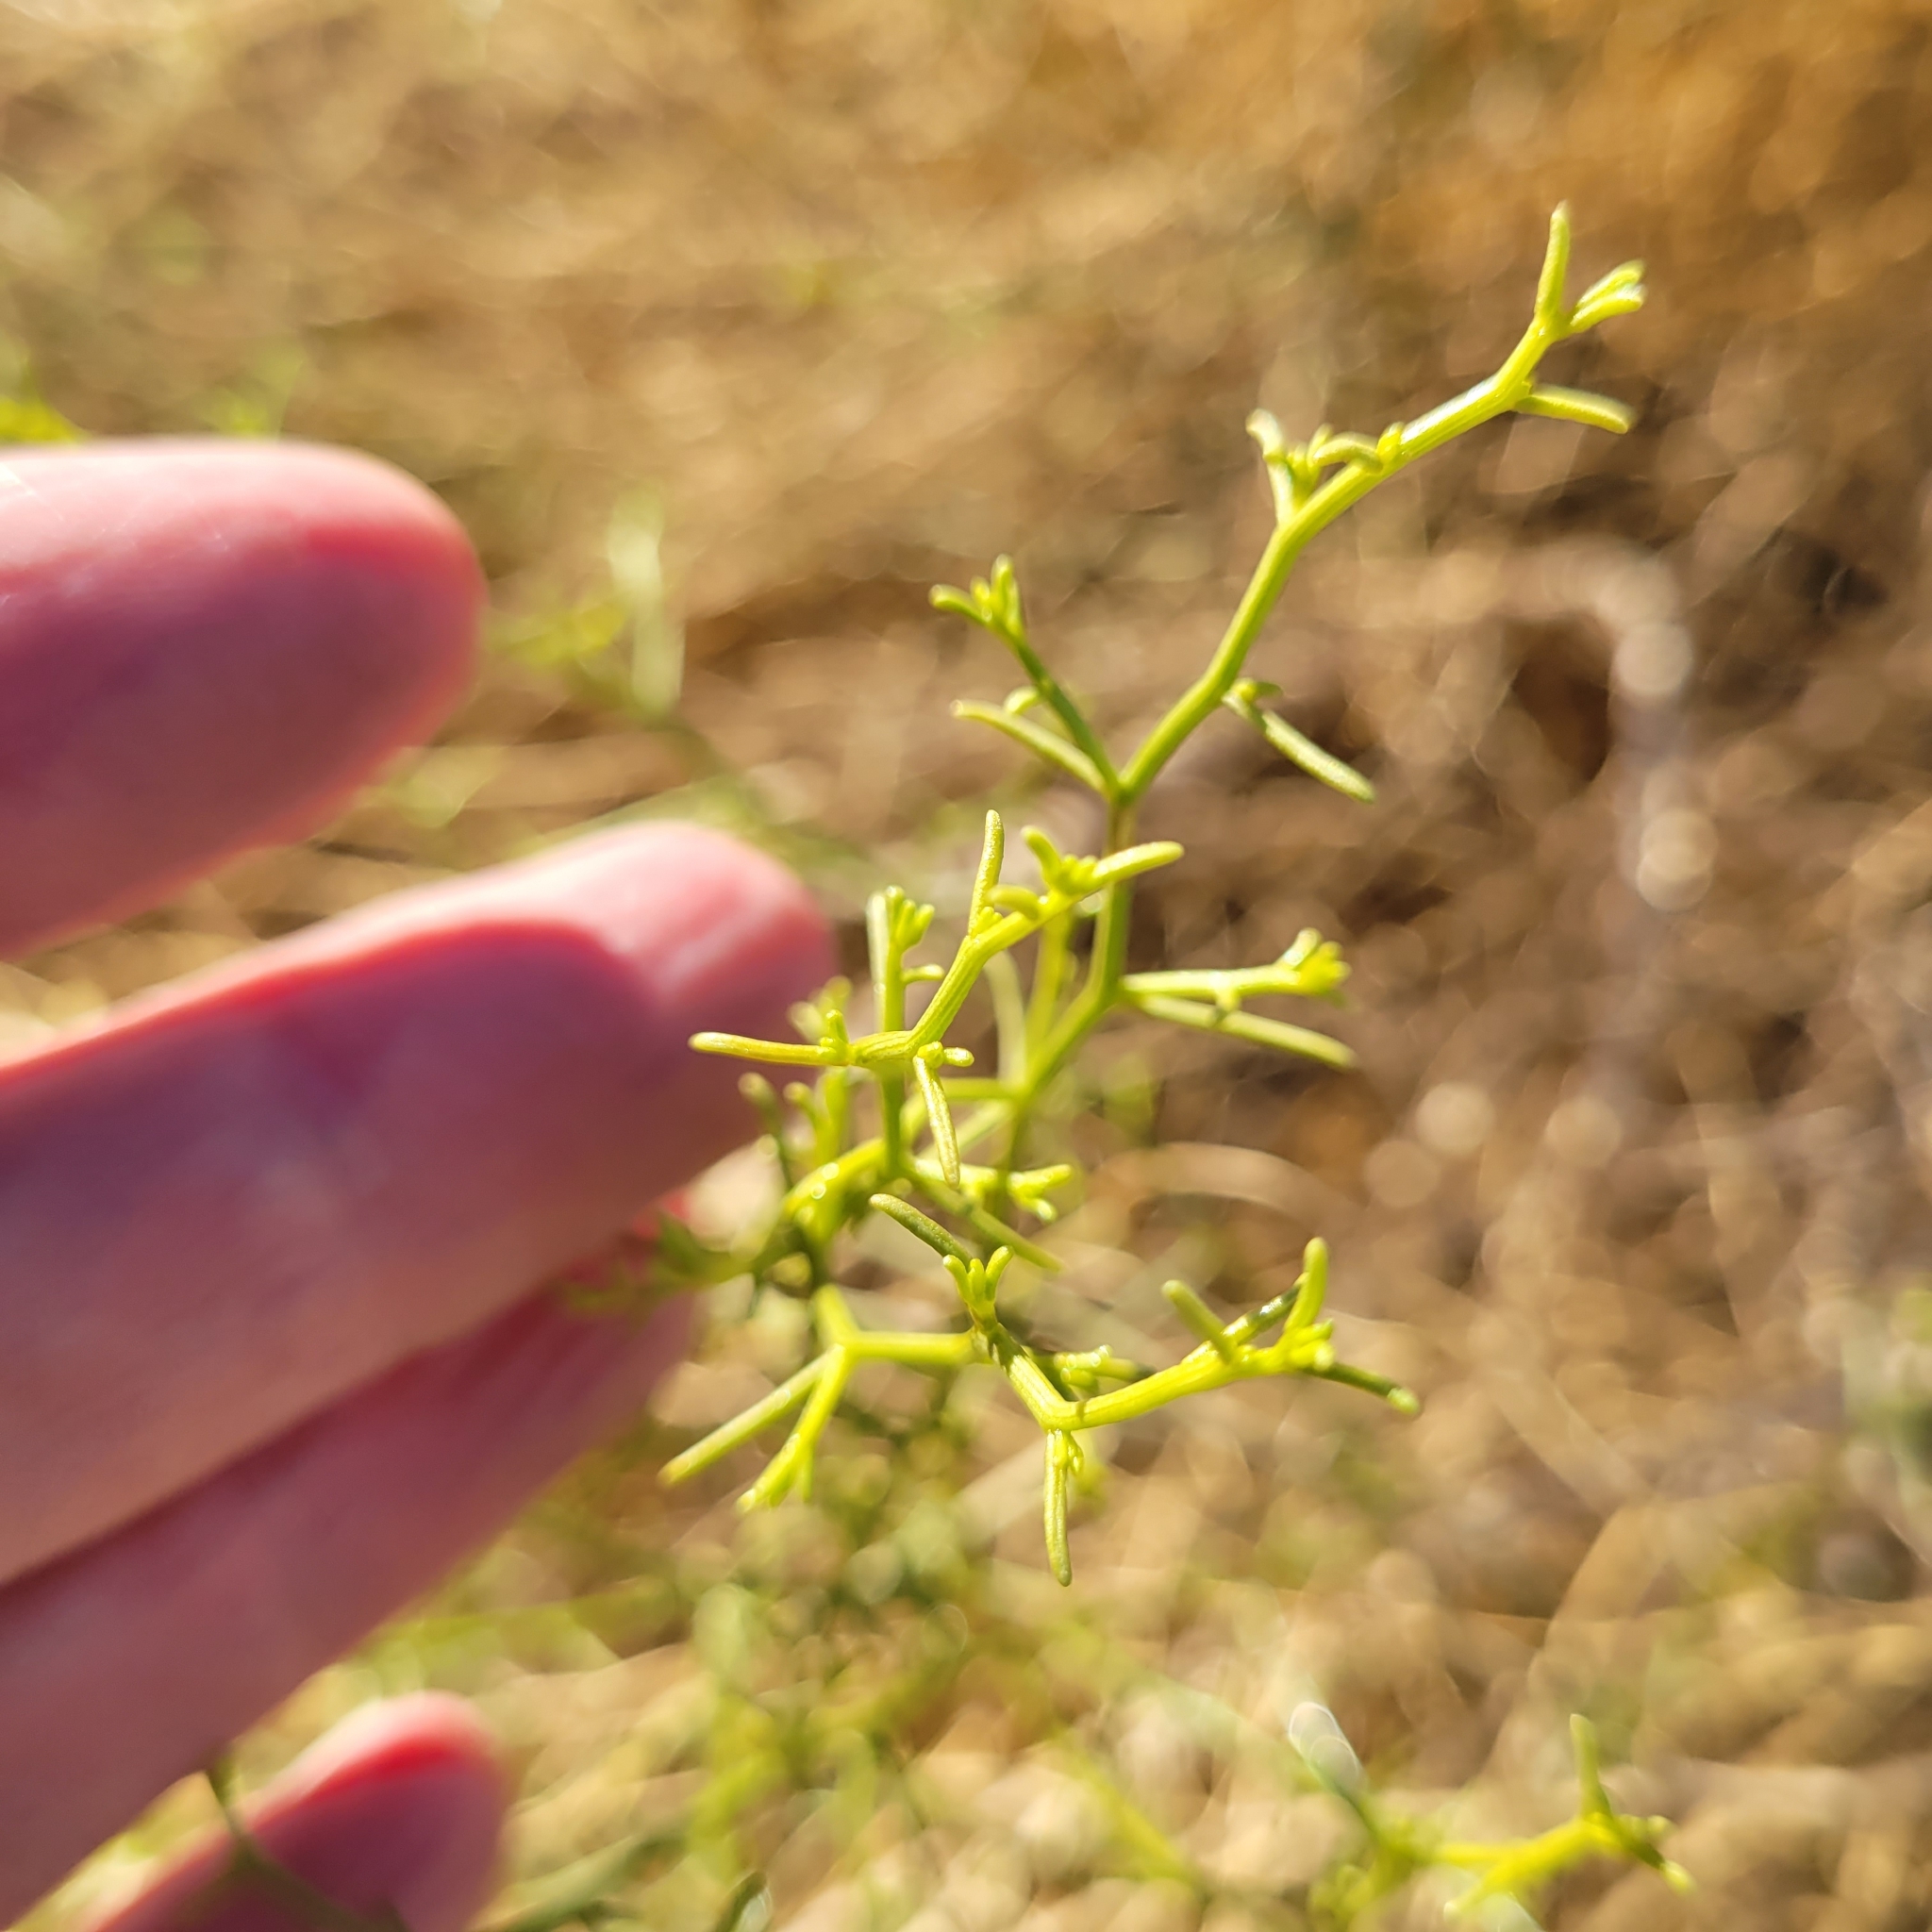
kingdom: Plantae
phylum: Tracheophyta
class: Magnoliopsida
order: Asterales
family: Asteraceae
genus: Ambrosia
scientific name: Ambrosia salsola
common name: Burrobrush
